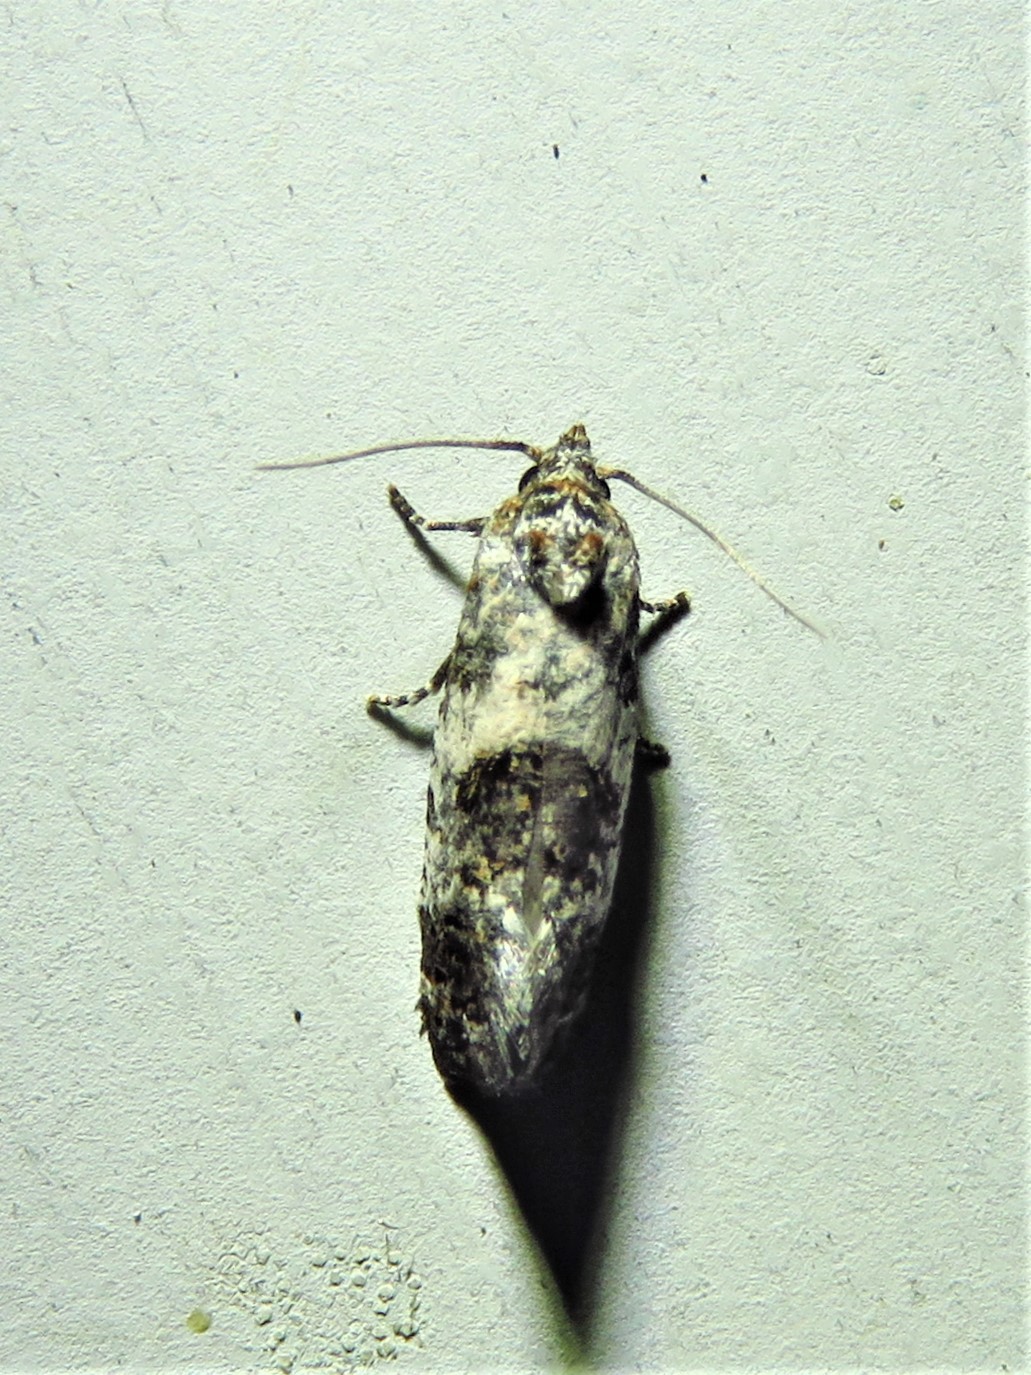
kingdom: Animalia
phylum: Arthropoda
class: Insecta
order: Lepidoptera
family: Tortricidae
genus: Rudenia
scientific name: Rudenia leguminana
